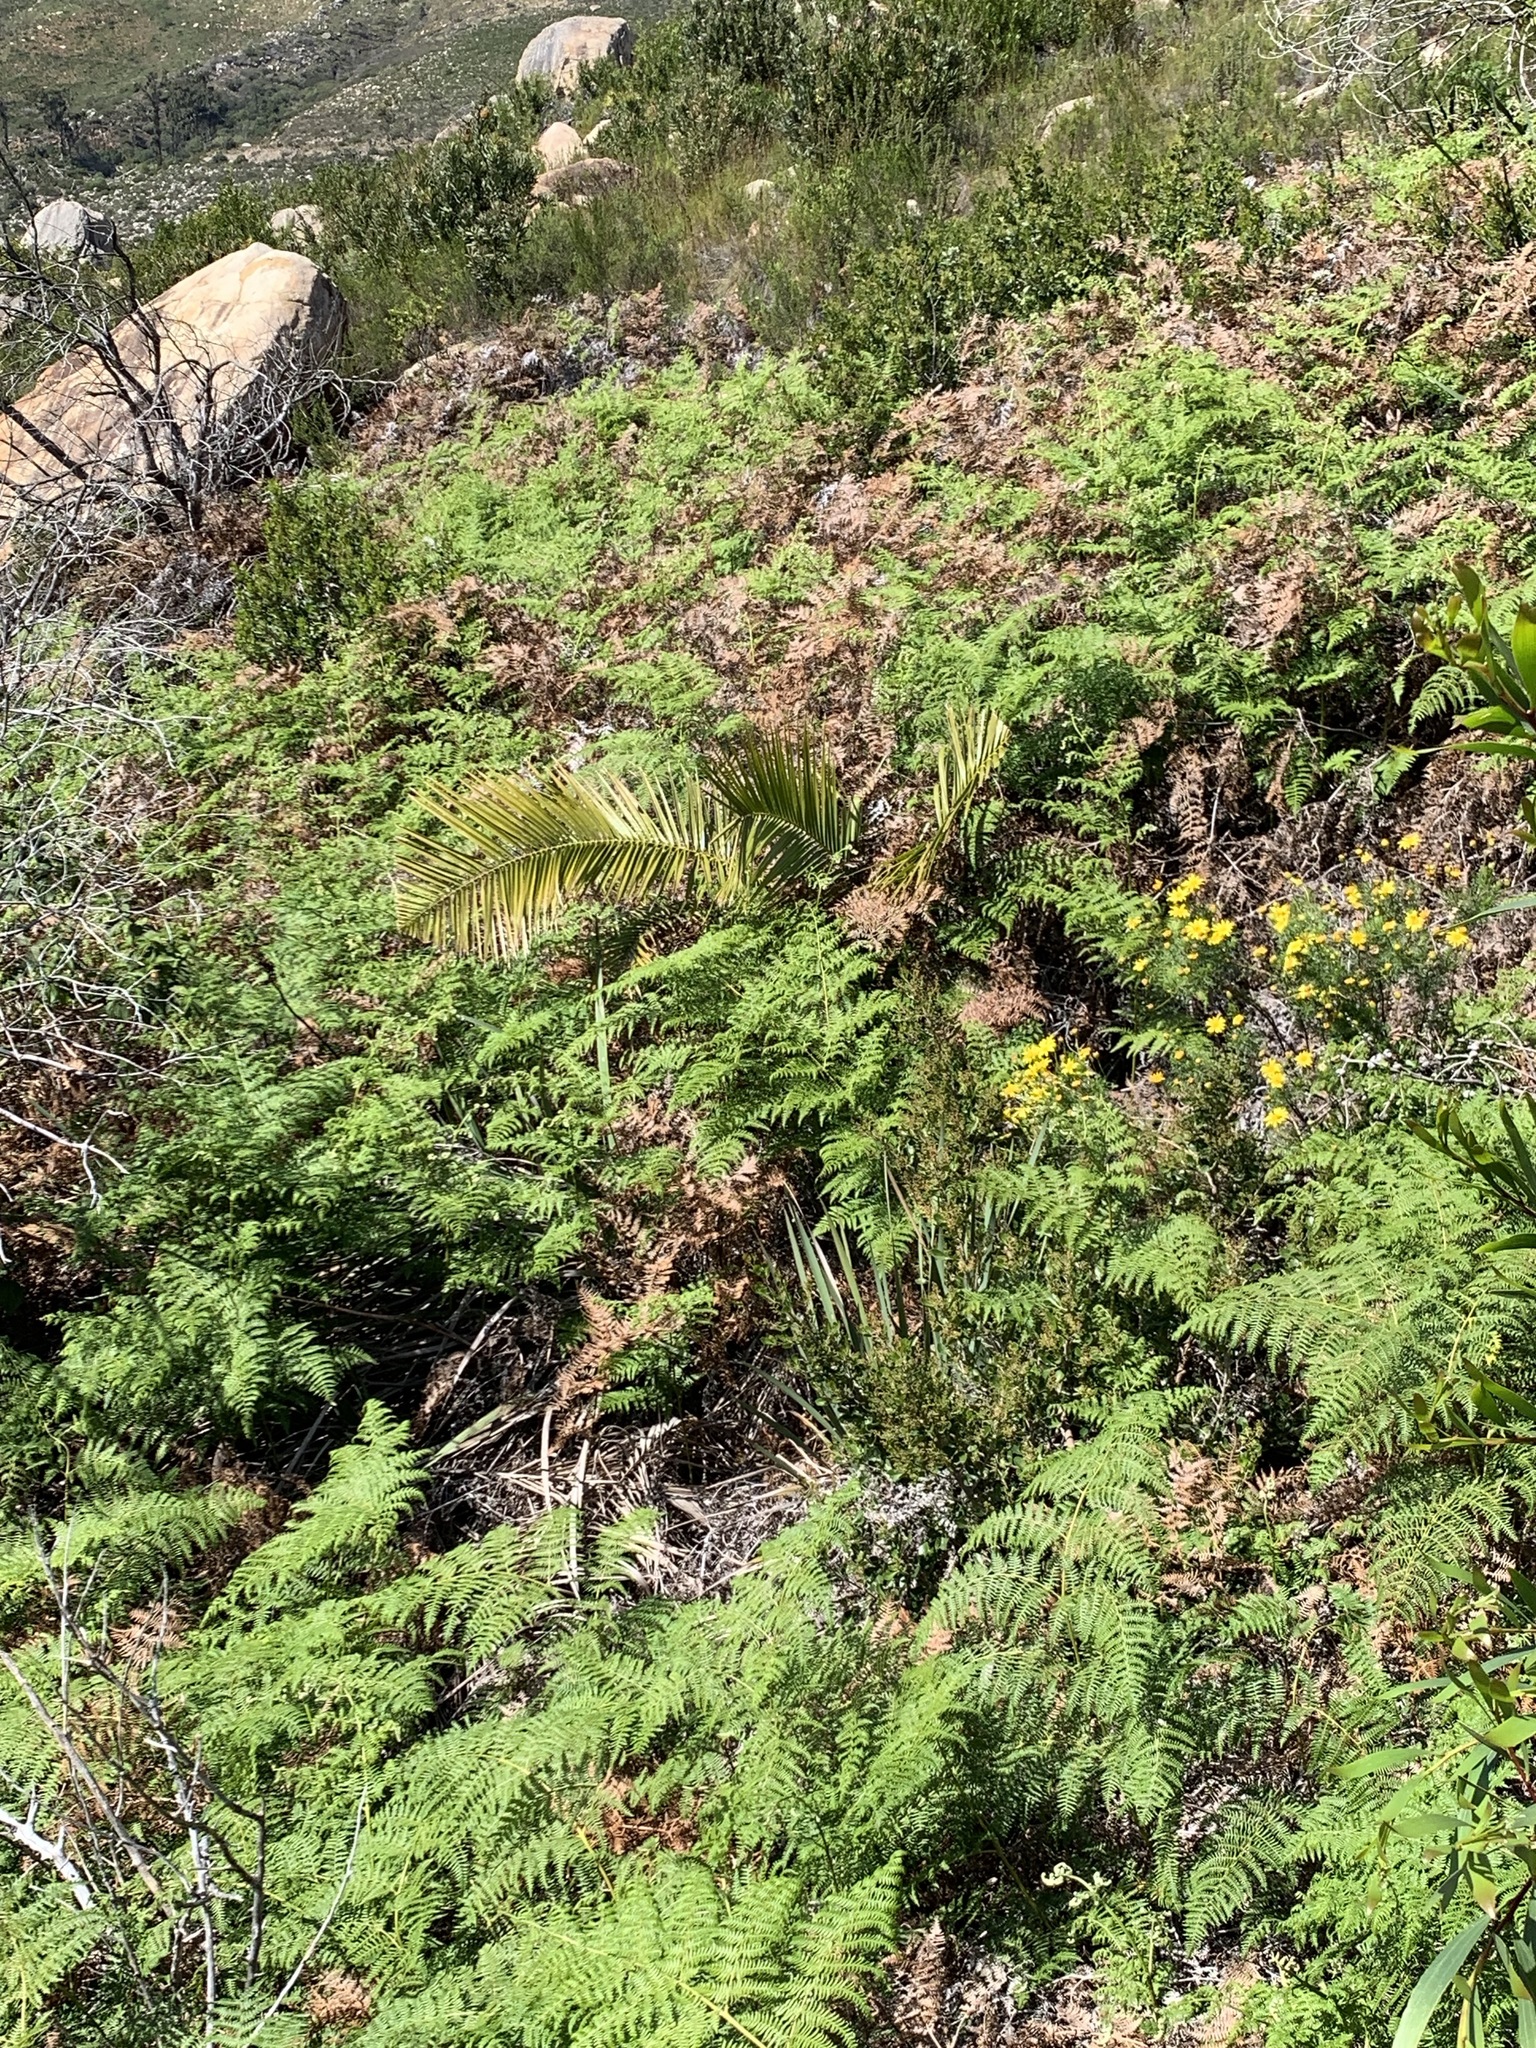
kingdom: Plantae
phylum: Tracheophyta
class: Liliopsida
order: Arecales
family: Arecaceae
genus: Phoenix
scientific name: Phoenix canariensis
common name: Canary island date palm
